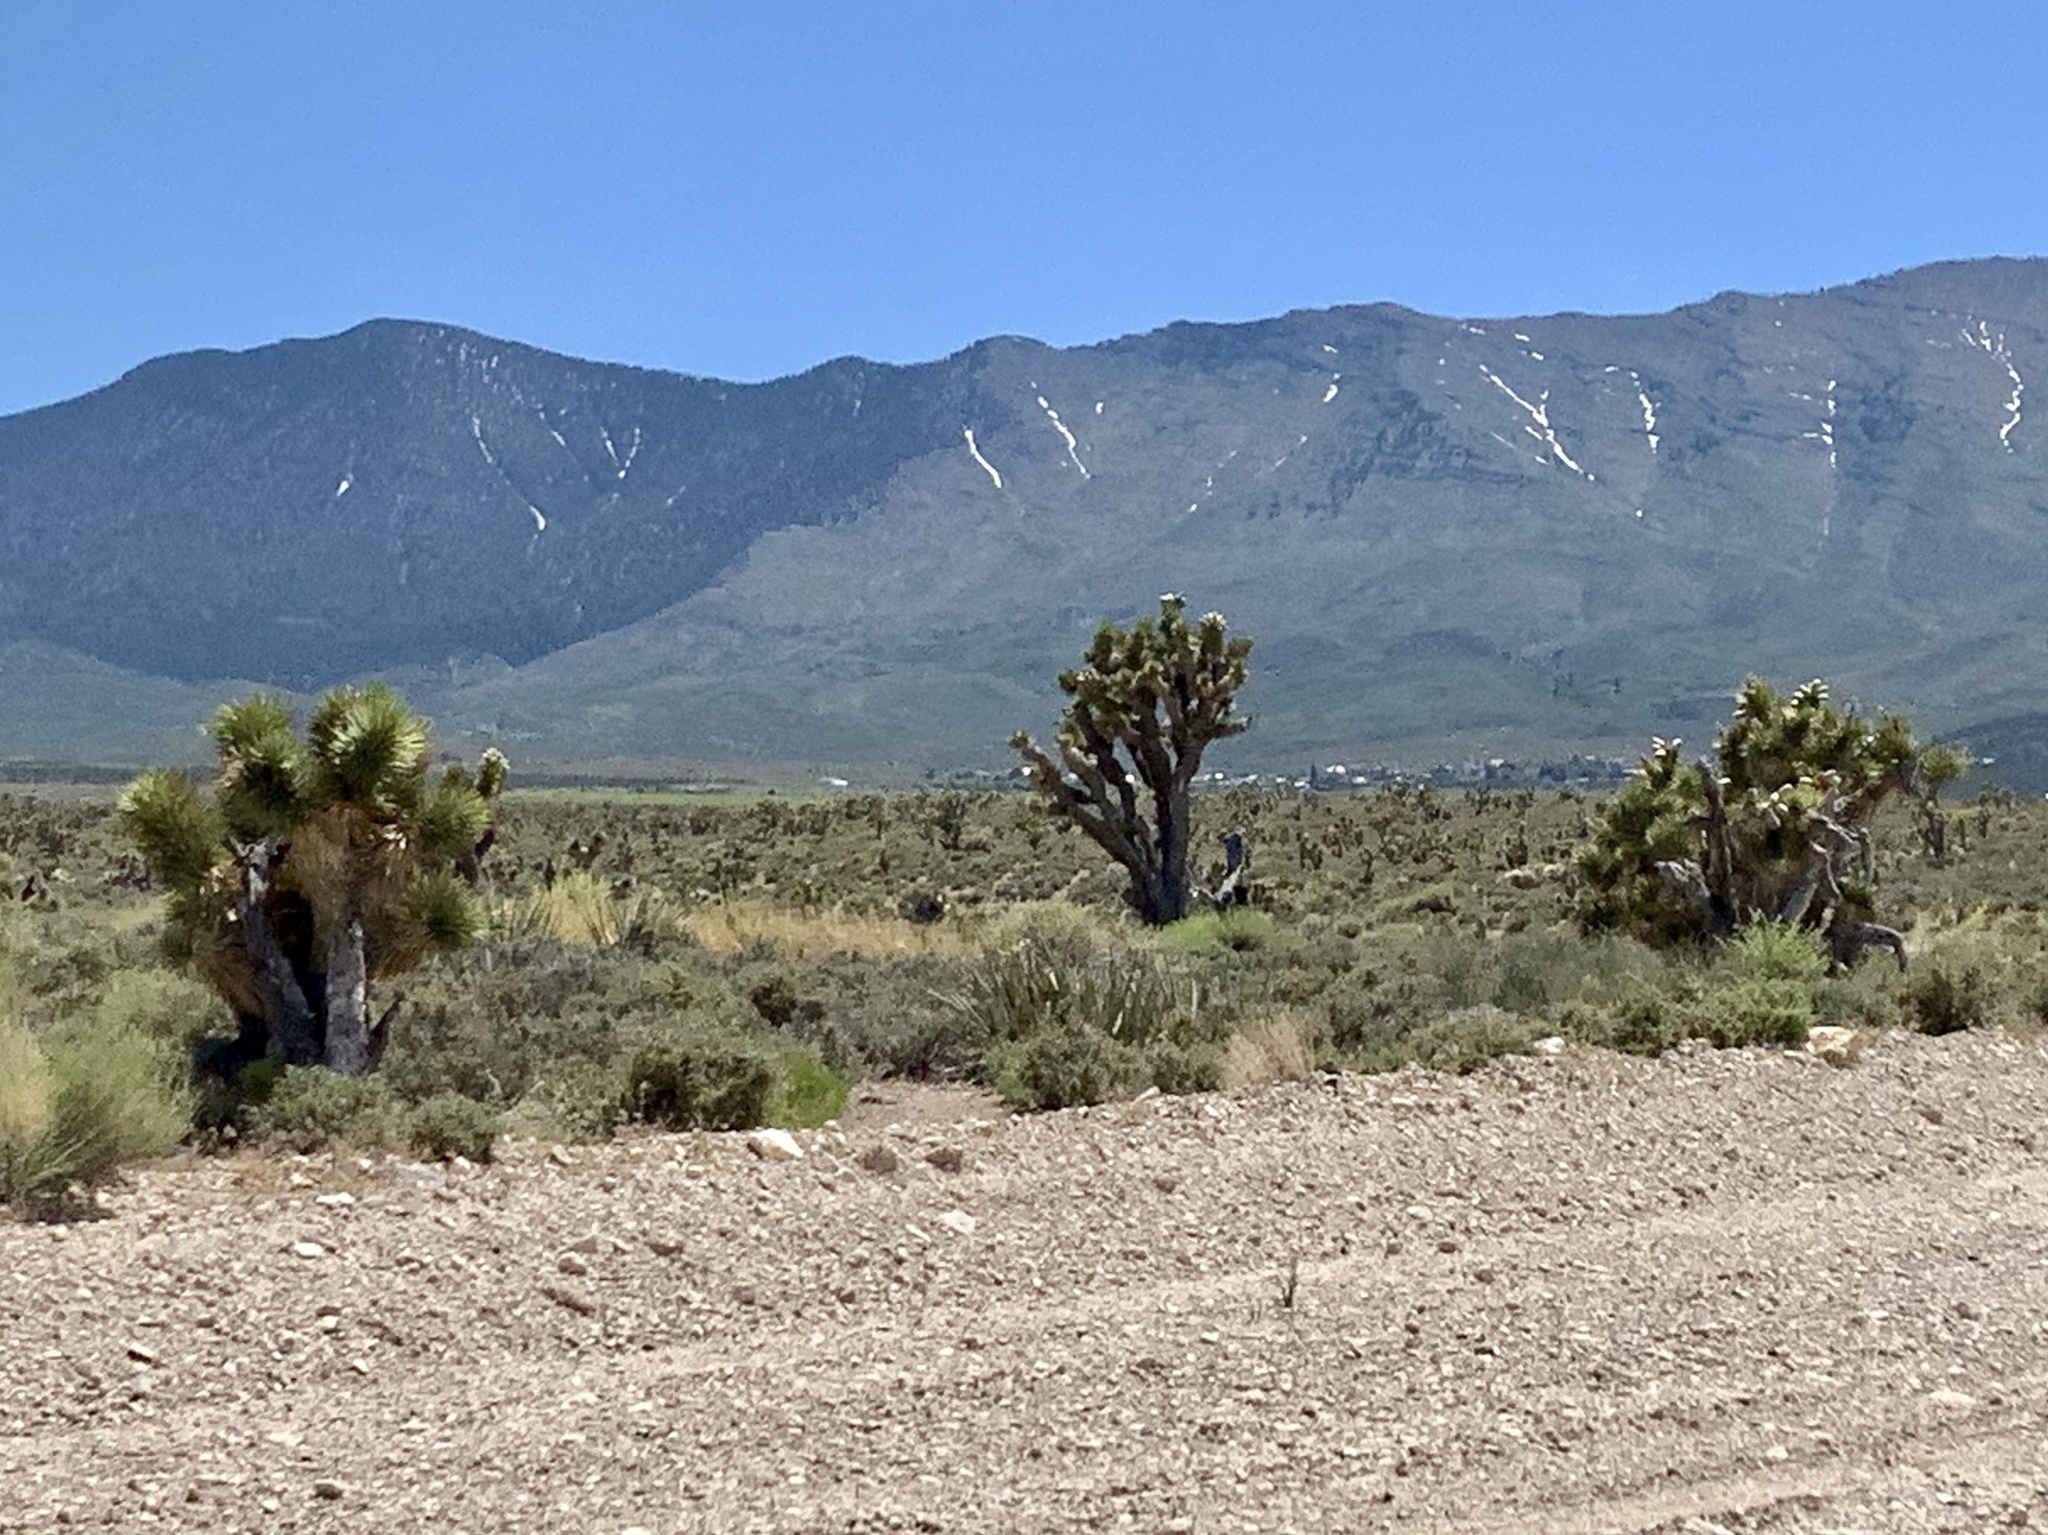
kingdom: Plantae
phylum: Tracheophyta
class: Liliopsida
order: Asparagales
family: Asparagaceae
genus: Yucca
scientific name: Yucca brevifolia
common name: Joshua tree
